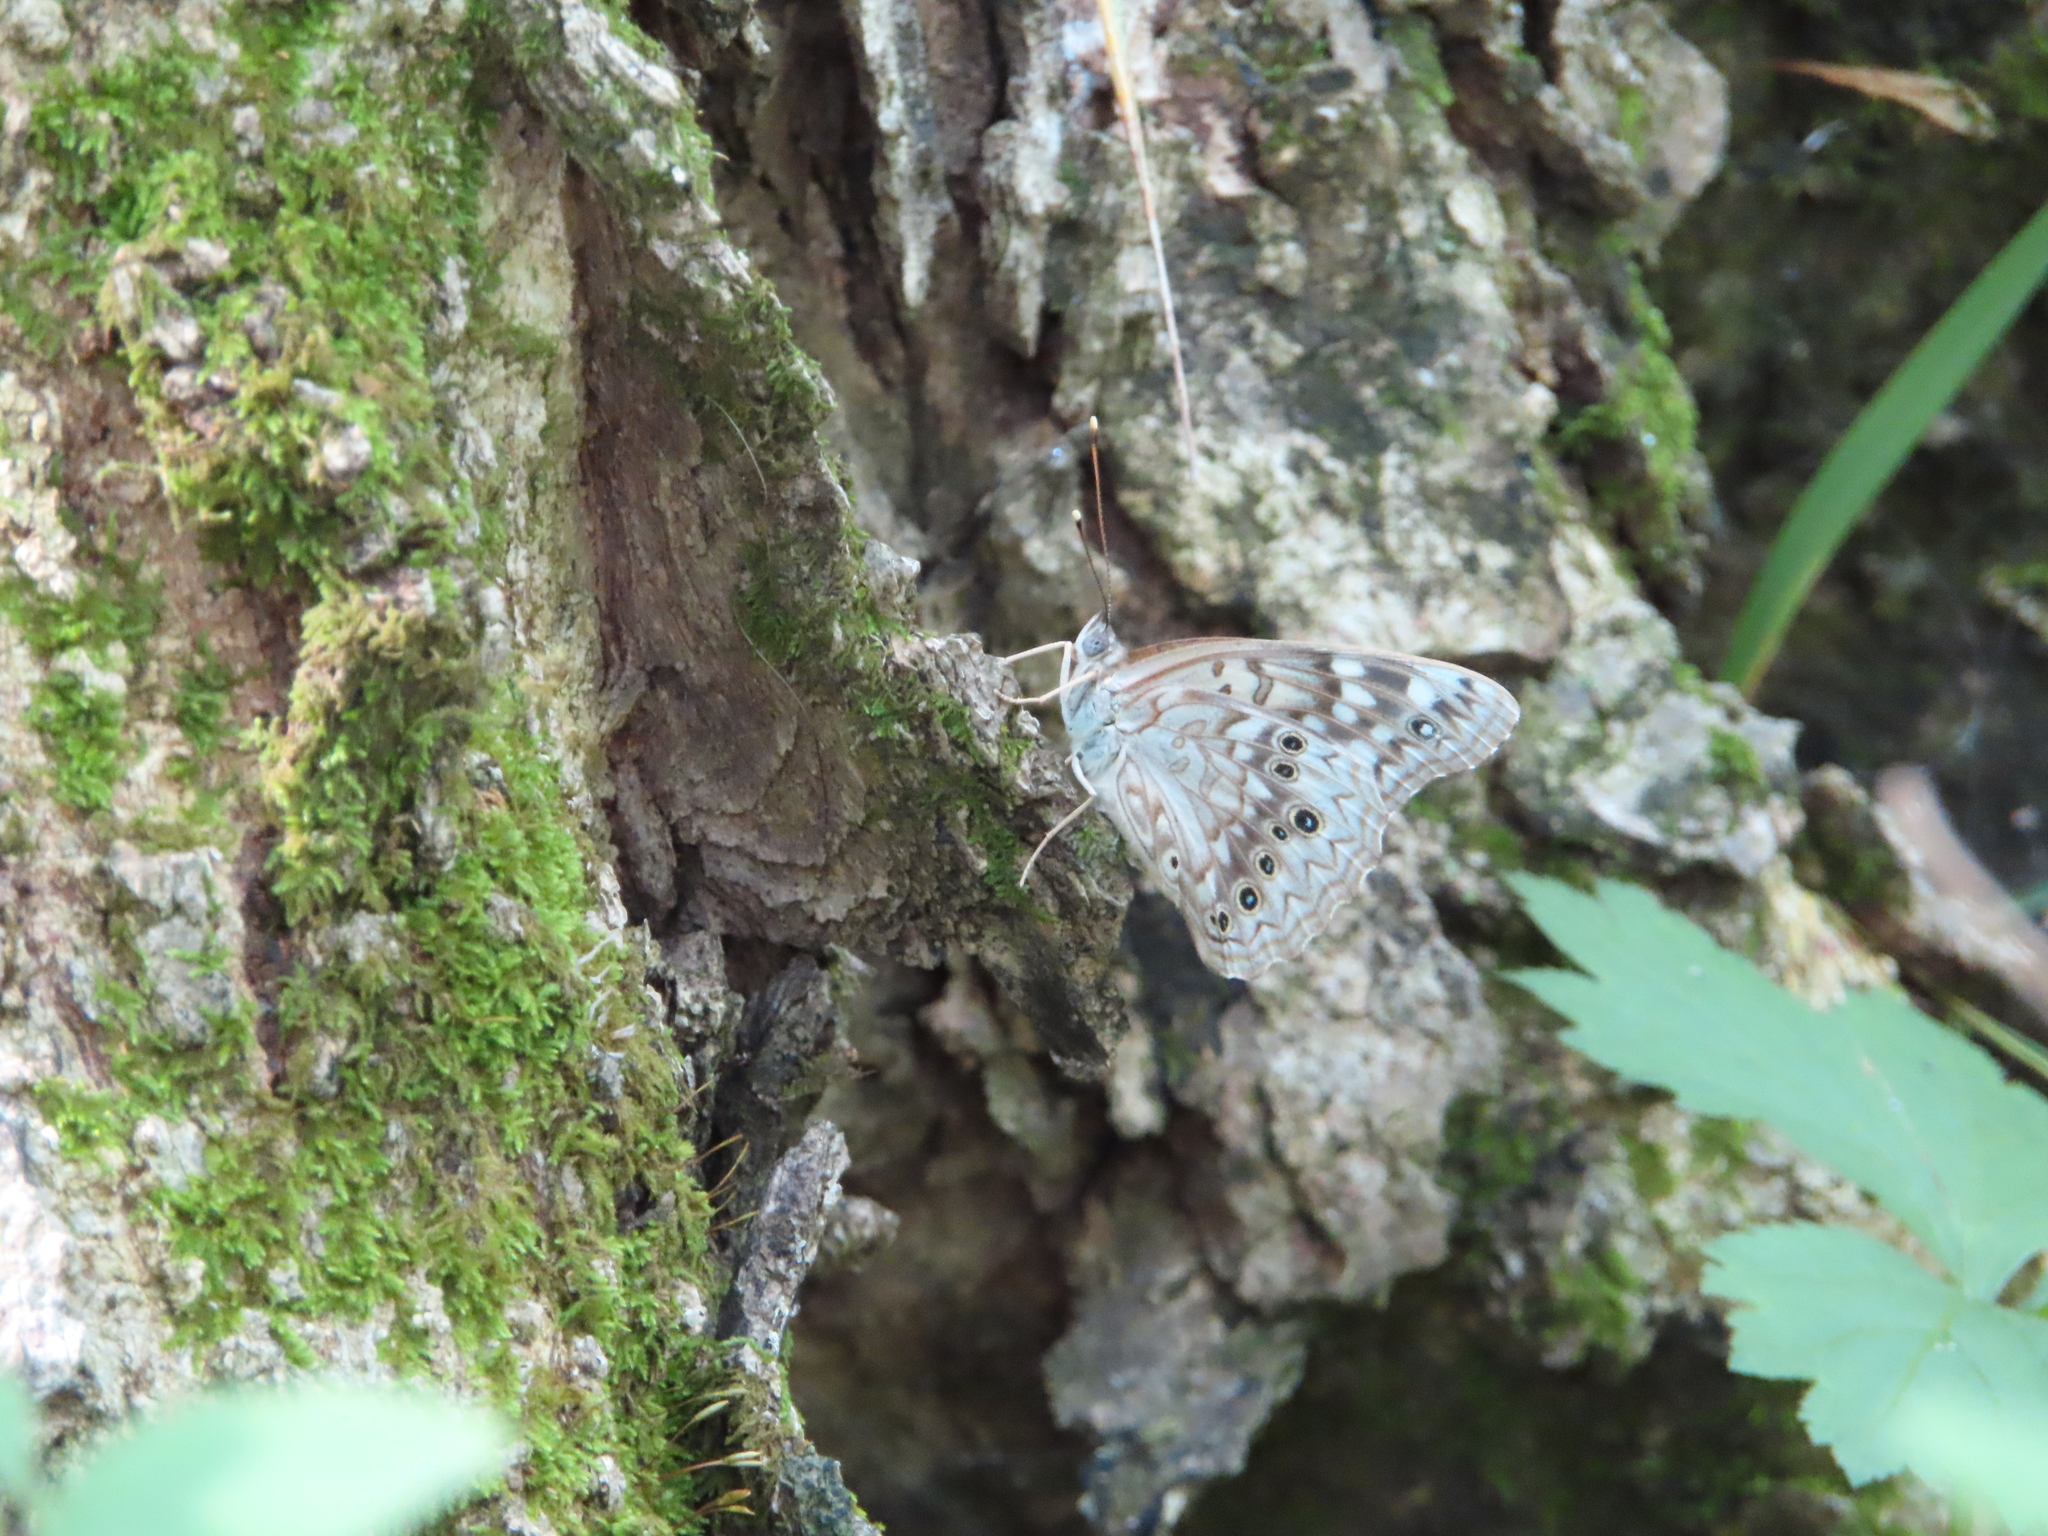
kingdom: Animalia
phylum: Arthropoda
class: Insecta
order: Lepidoptera
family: Nymphalidae
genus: Asterocampa
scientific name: Asterocampa celtis
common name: Hackberry emperor
